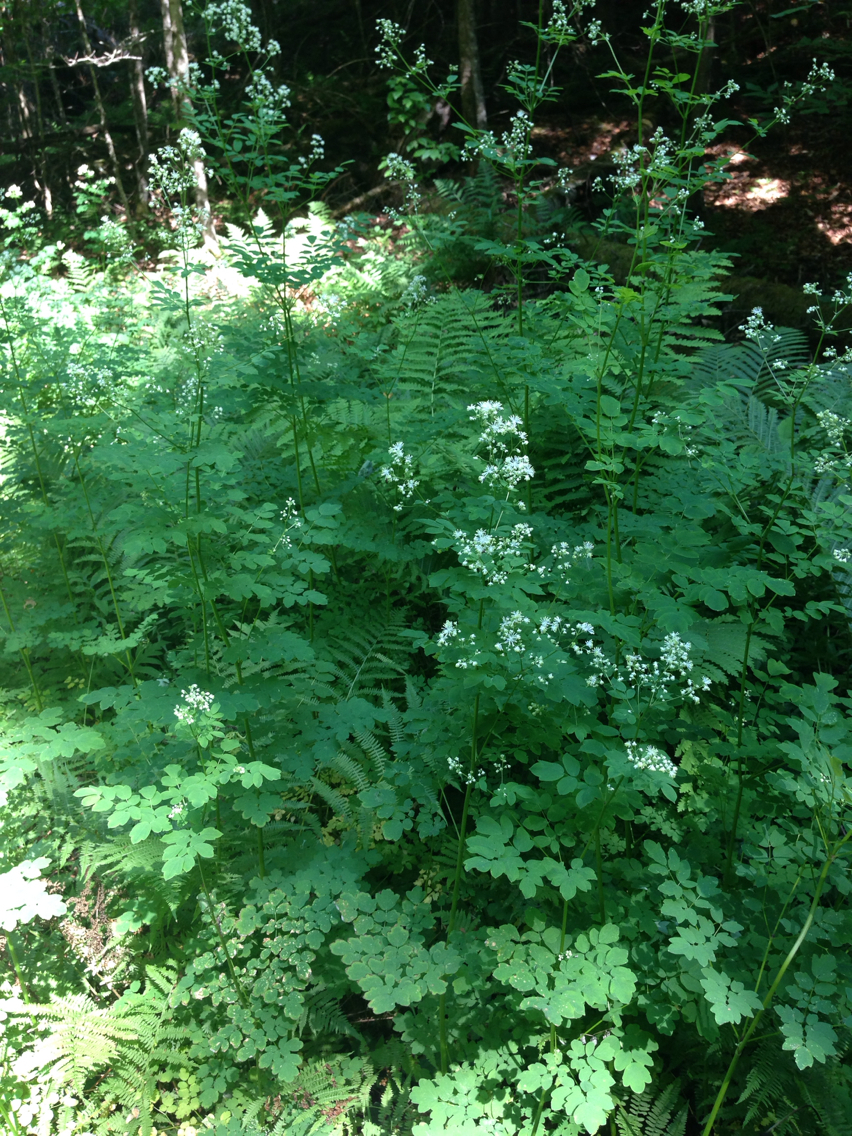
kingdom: Plantae
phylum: Tracheophyta
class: Magnoliopsida
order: Ranunculales
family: Ranunculaceae
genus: Thalictrum
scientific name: Thalictrum pubescens
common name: King-of-the-meadow
